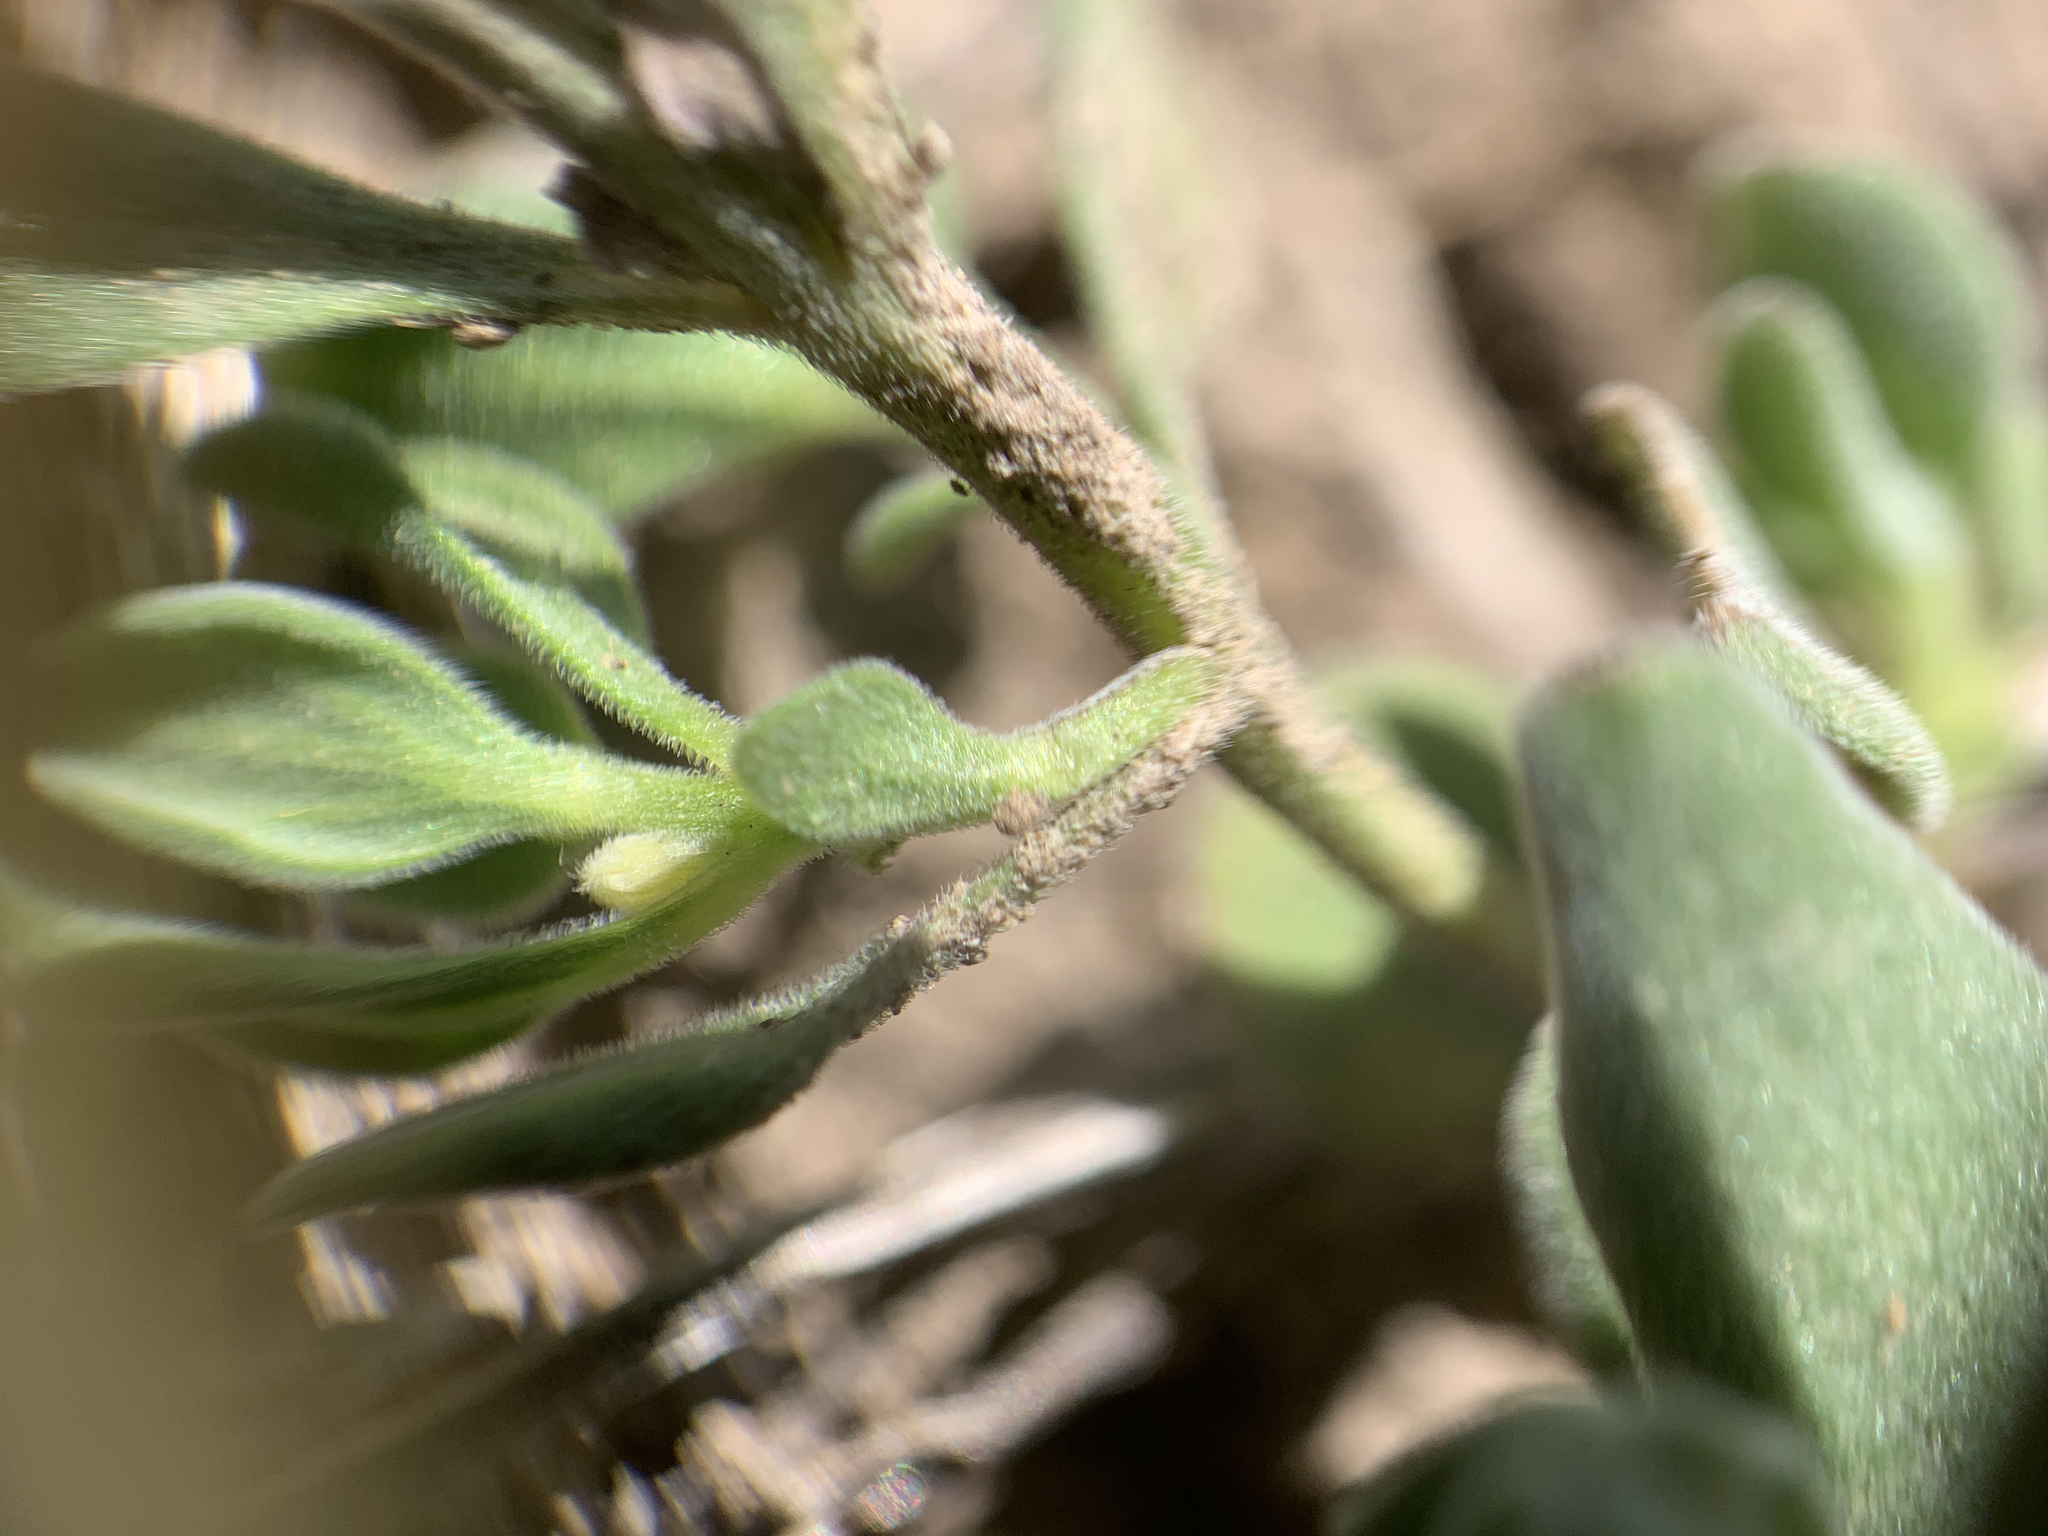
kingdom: Plantae
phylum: Tracheophyta
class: Magnoliopsida
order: Lamiales
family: Lamiaceae
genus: Scutellaria
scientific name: Scutellaria nana
